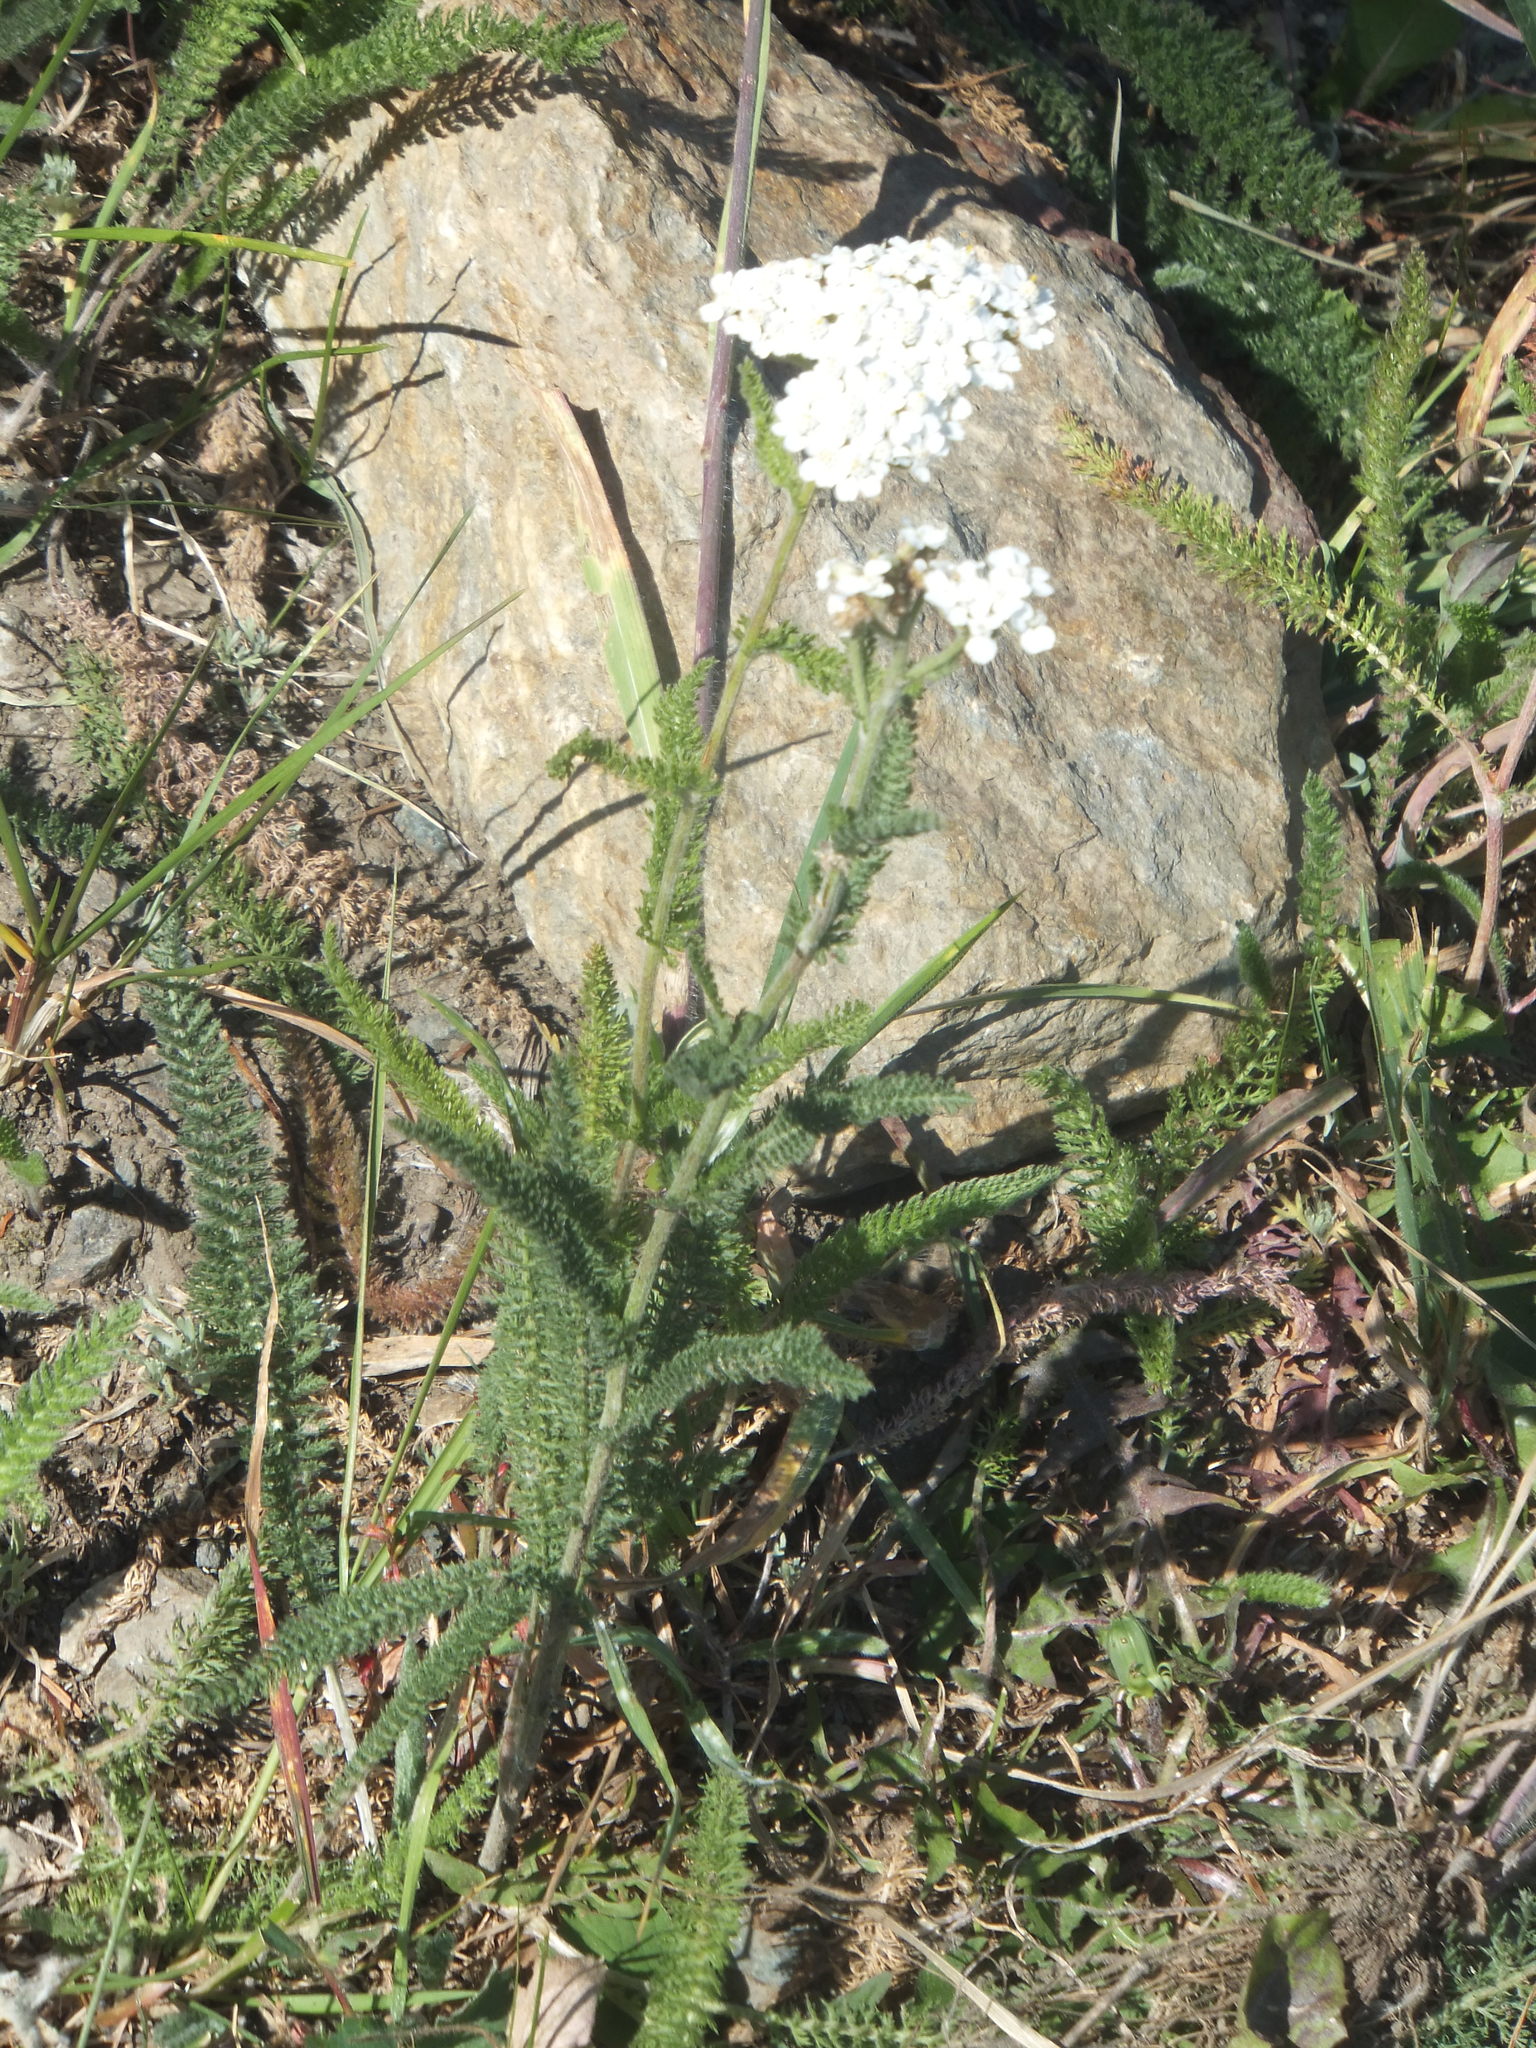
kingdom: Plantae
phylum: Tracheophyta
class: Magnoliopsida
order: Asterales
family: Asteraceae
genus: Achillea
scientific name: Achillea millefolium
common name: Yarrow
